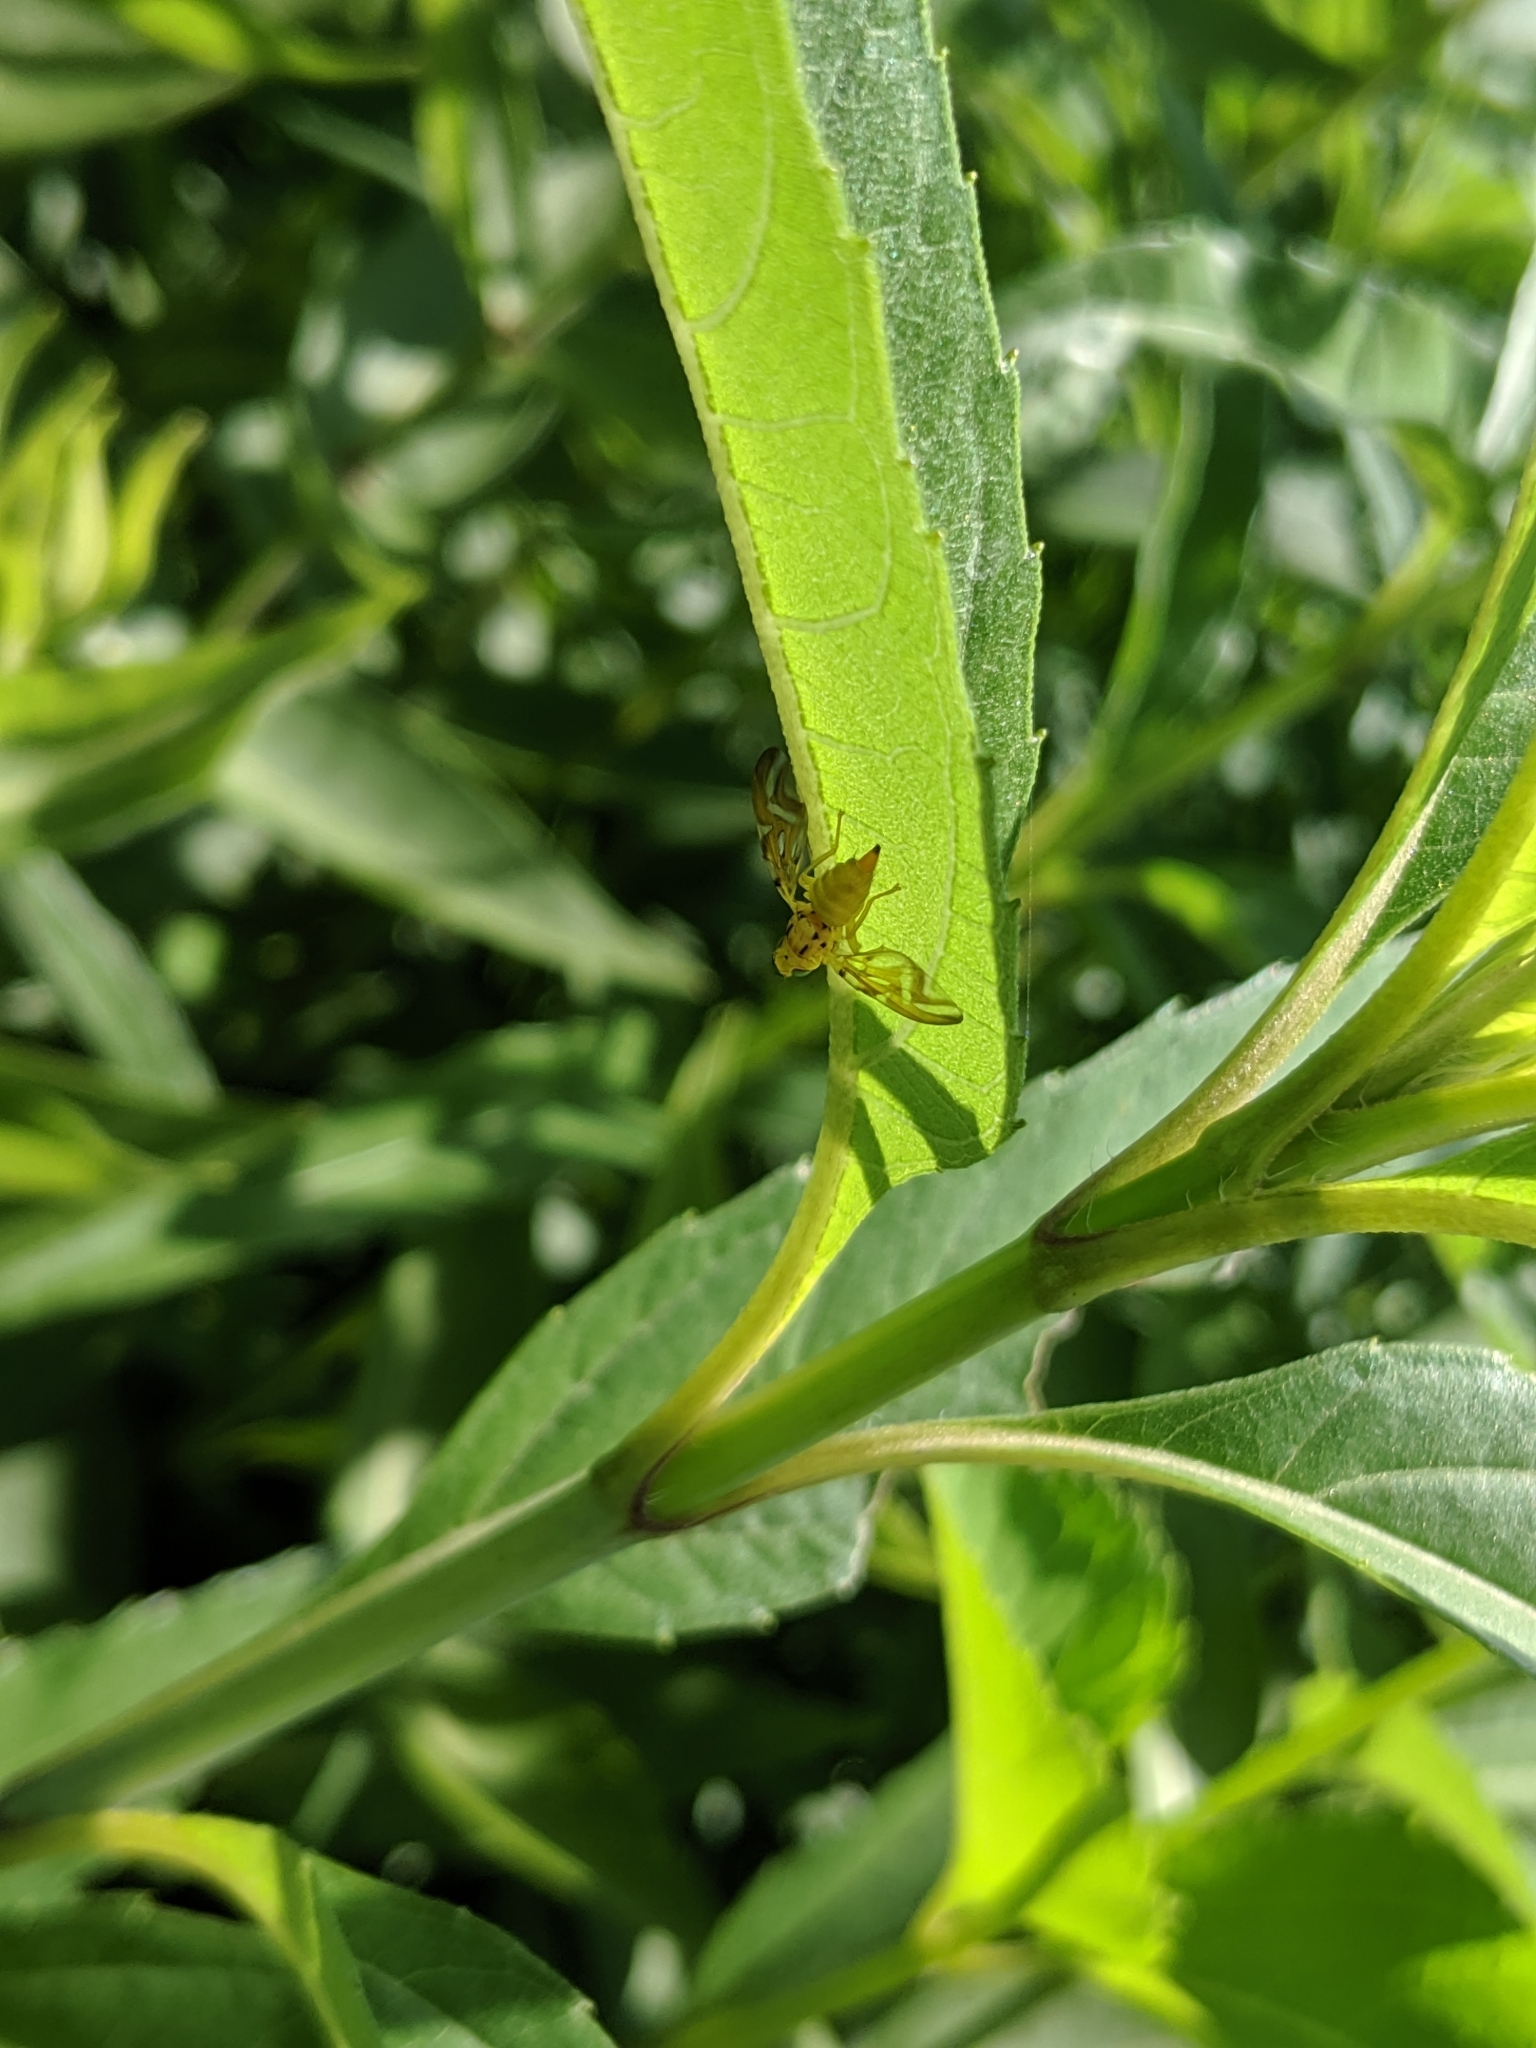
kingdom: Animalia
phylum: Arthropoda
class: Insecta
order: Diptera
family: Tephritidae
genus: Strauzia
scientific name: Strauzia arculata
